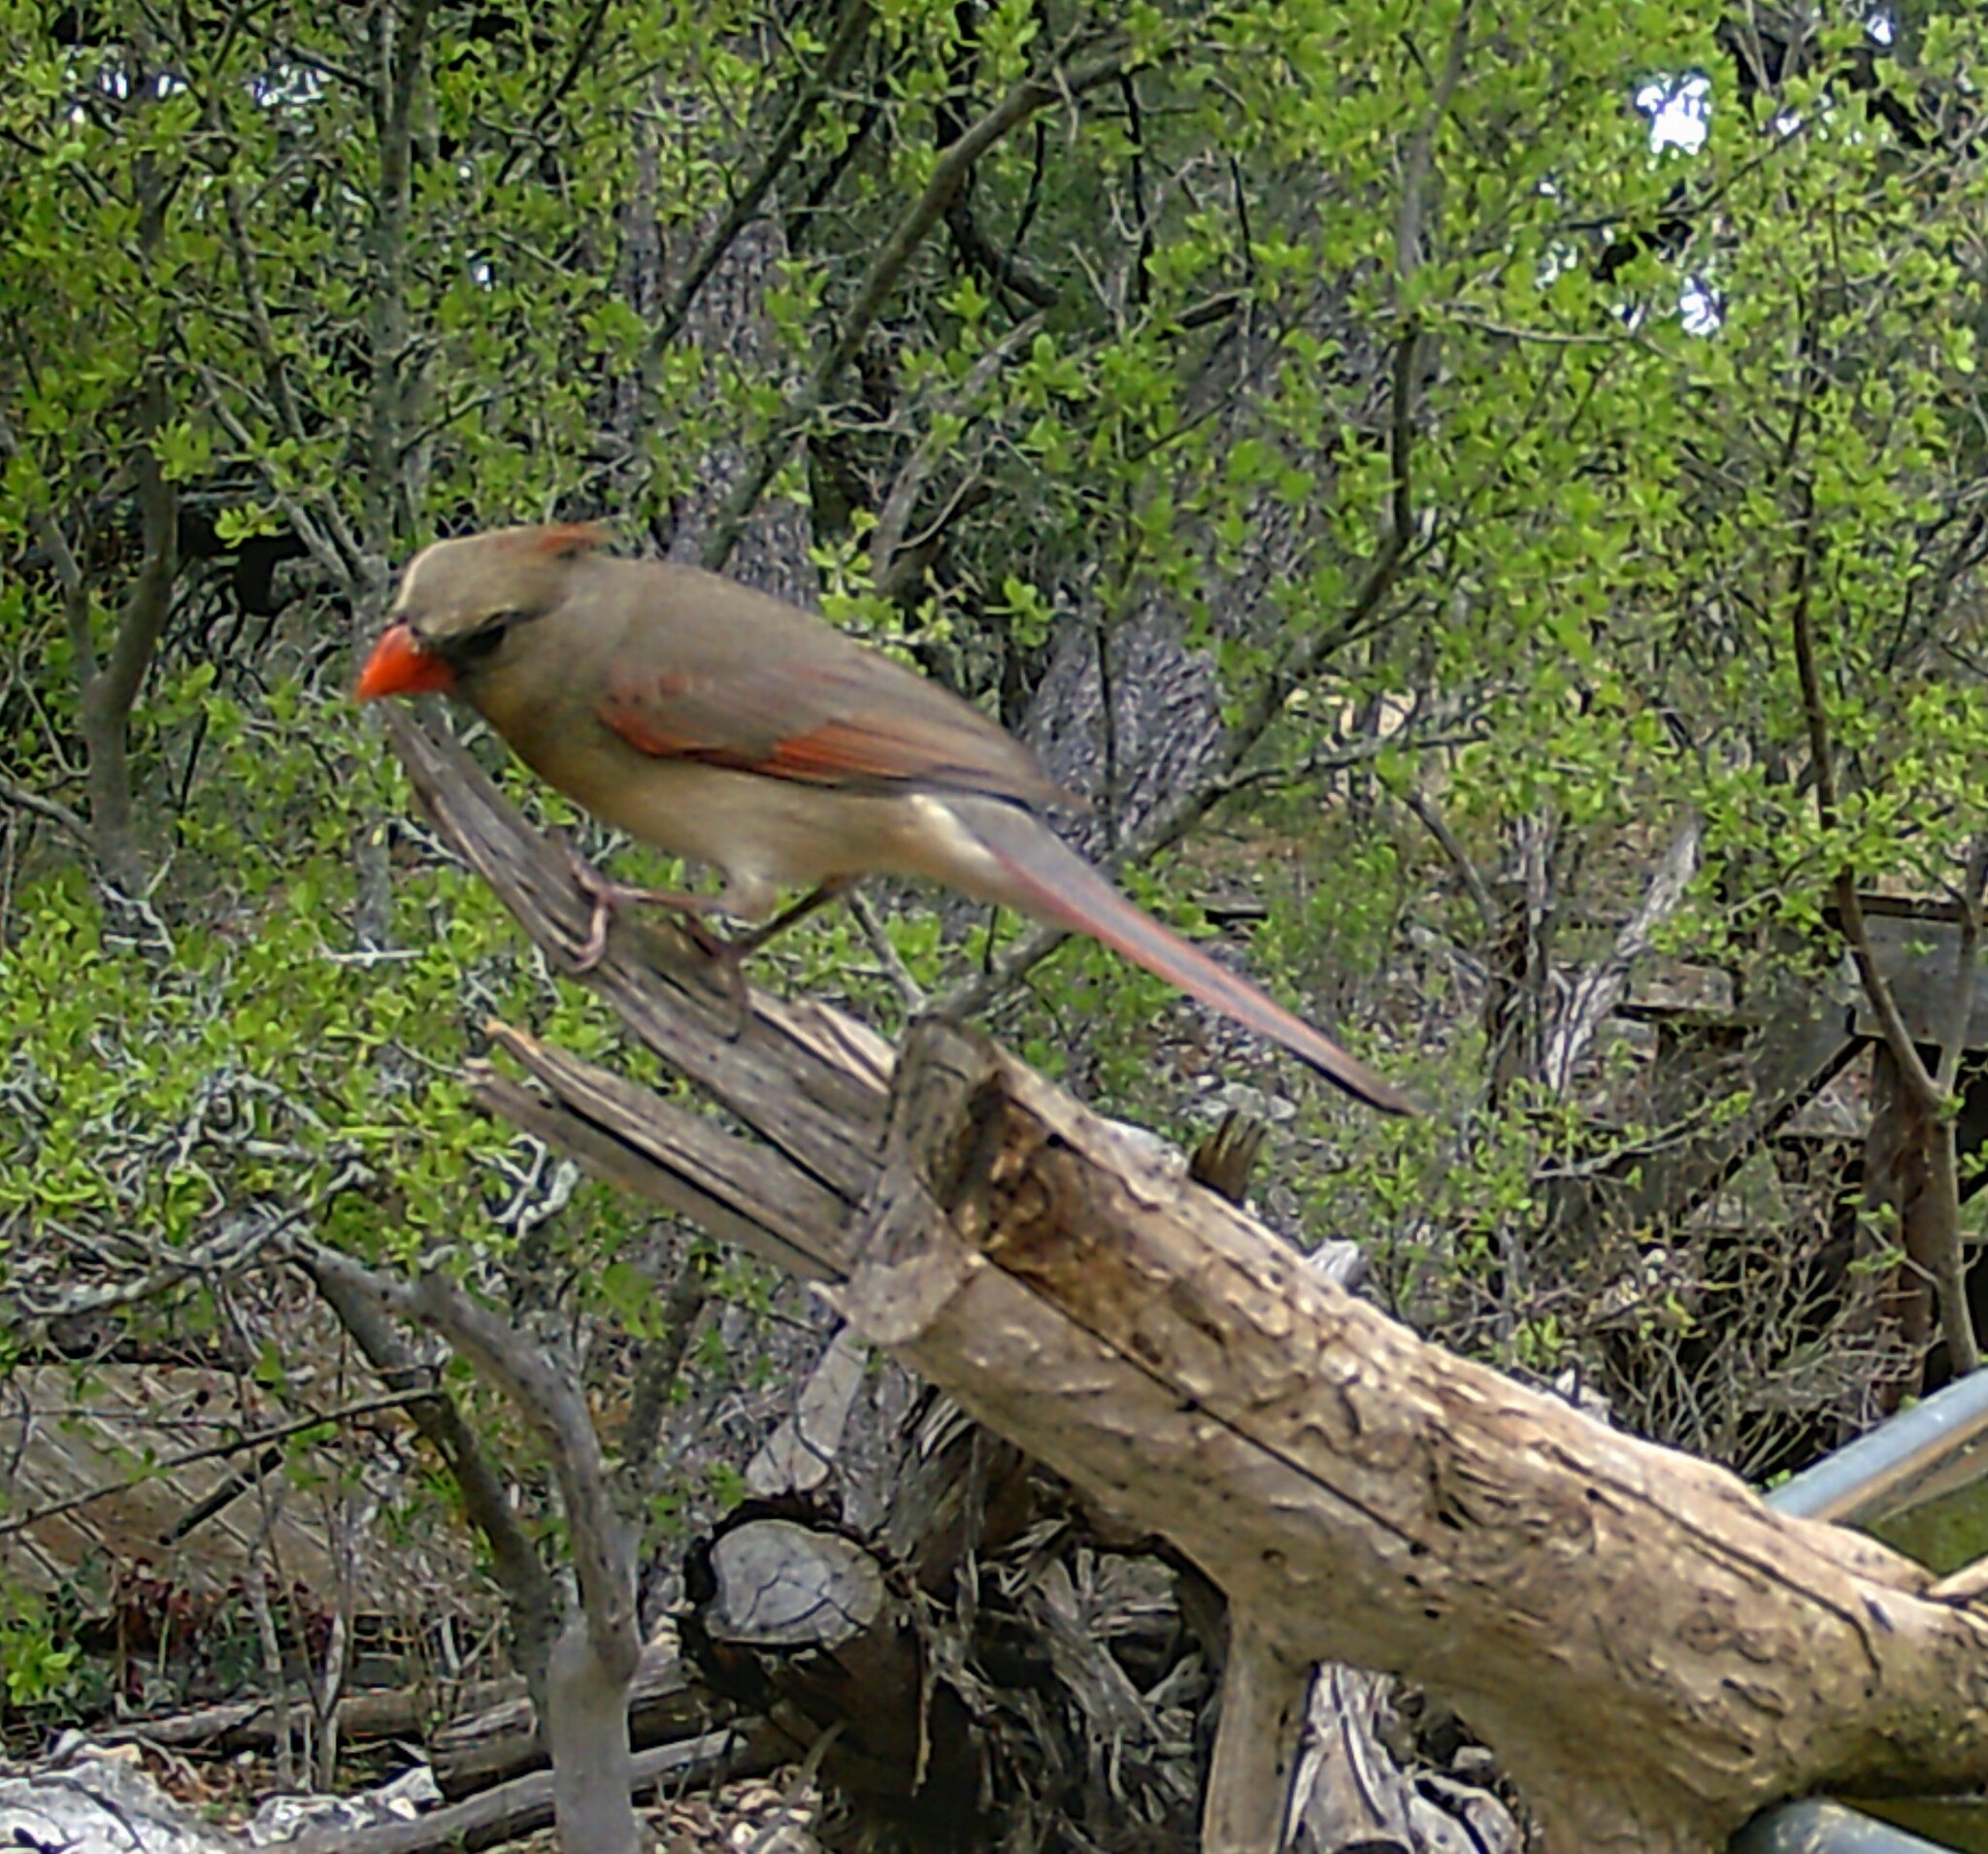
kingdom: Animalia
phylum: Chordata
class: Aves
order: Passeriformes
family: Cardinalidae
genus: Cardinalis
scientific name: Cardinalis cardinalis
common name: Northern cardinal
